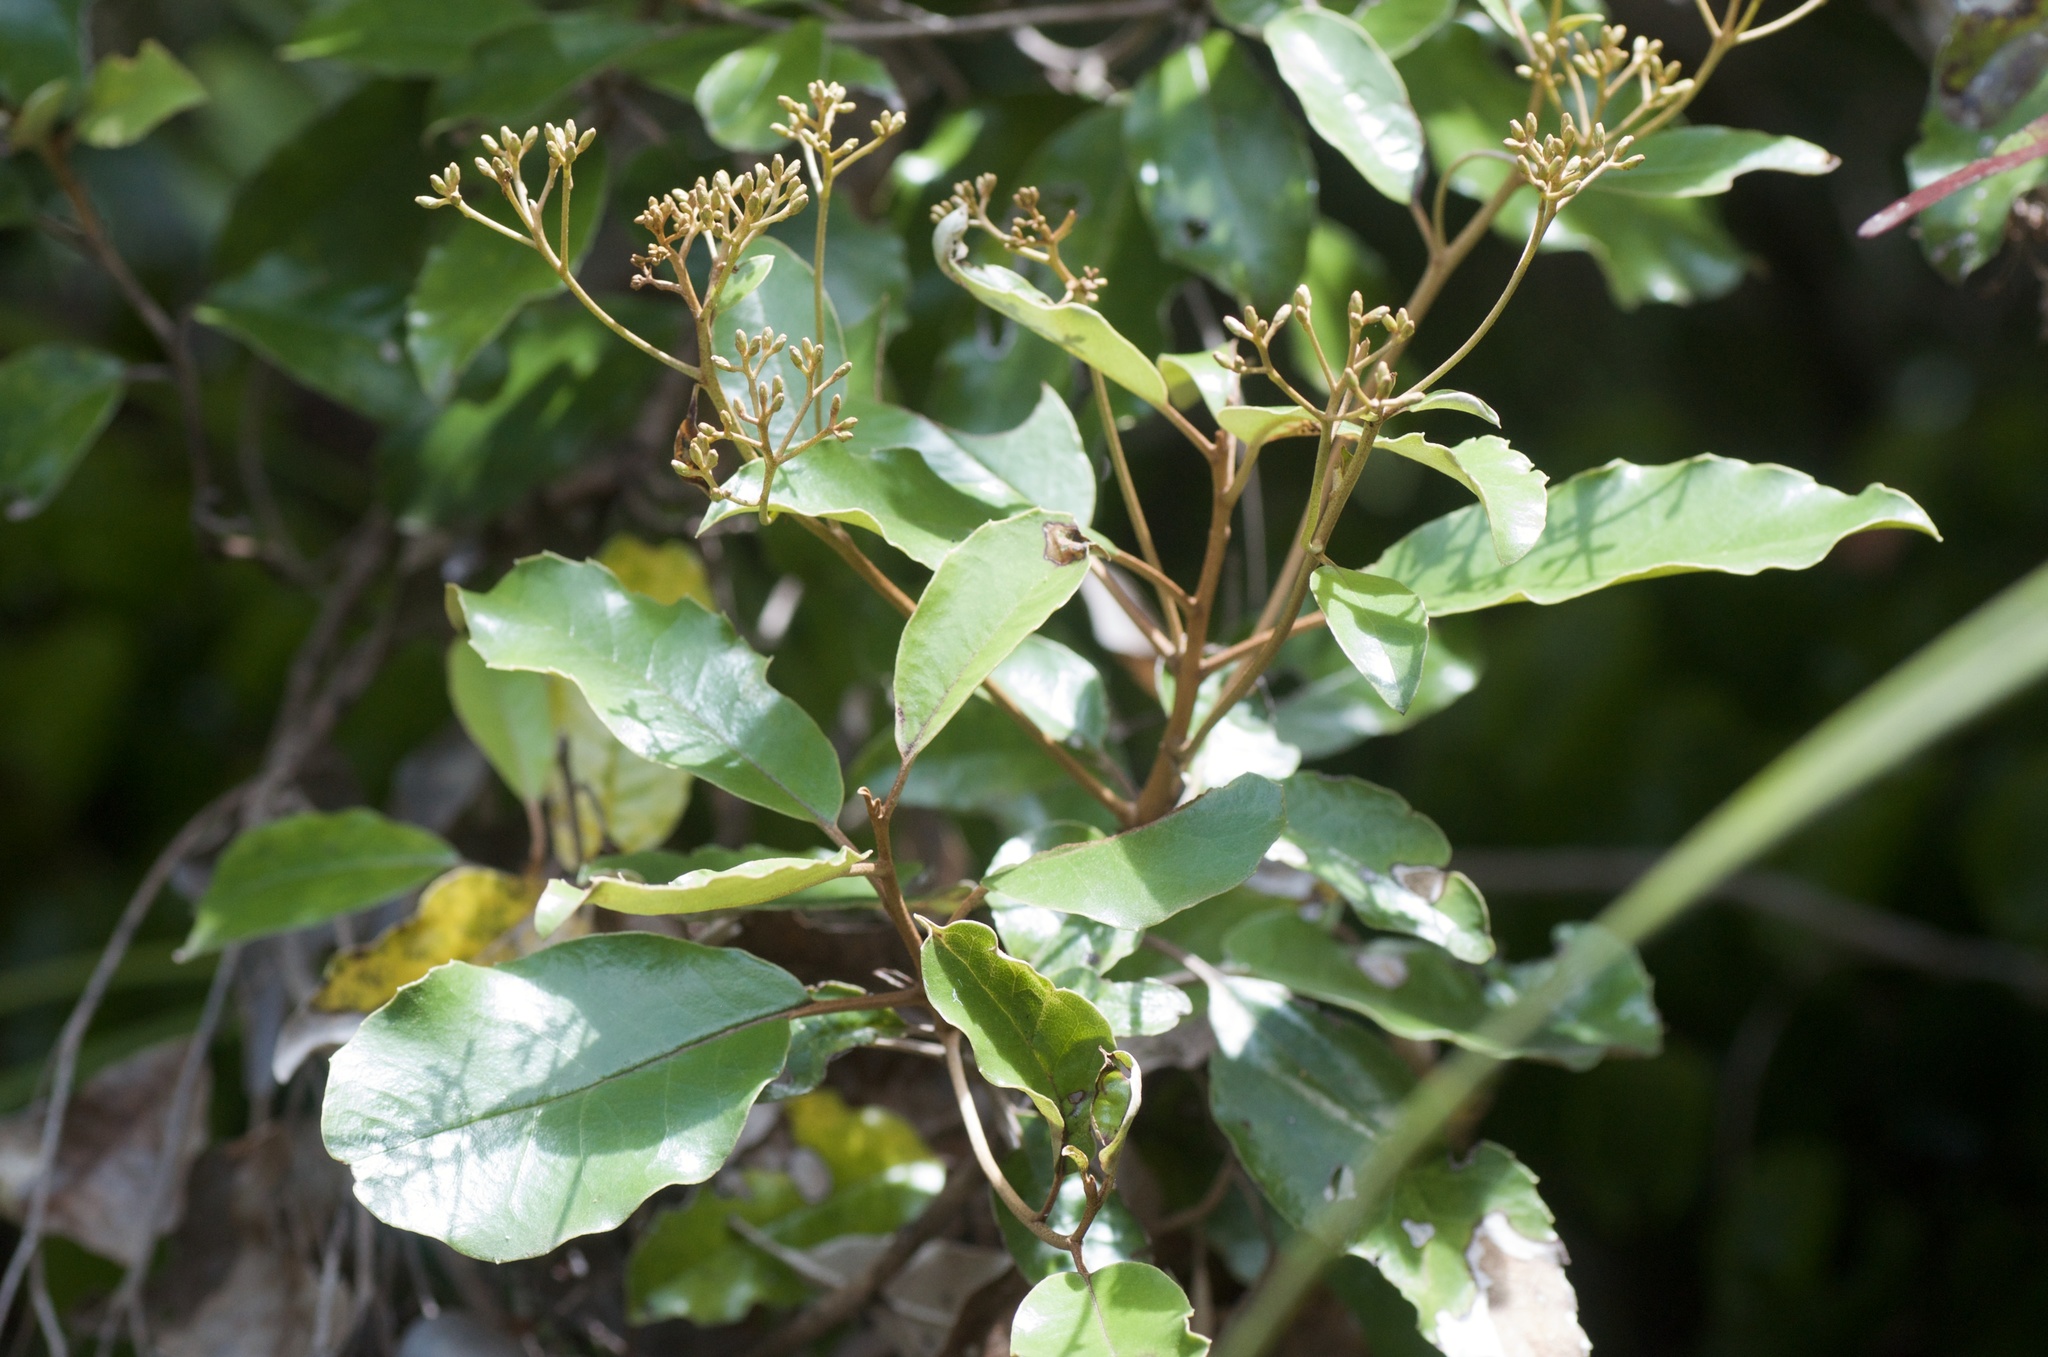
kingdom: Plantae
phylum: Tracheophyta
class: Magnoliopsida
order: Asterales
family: Asteraceae
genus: Olearia
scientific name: Olearia furfuracea
